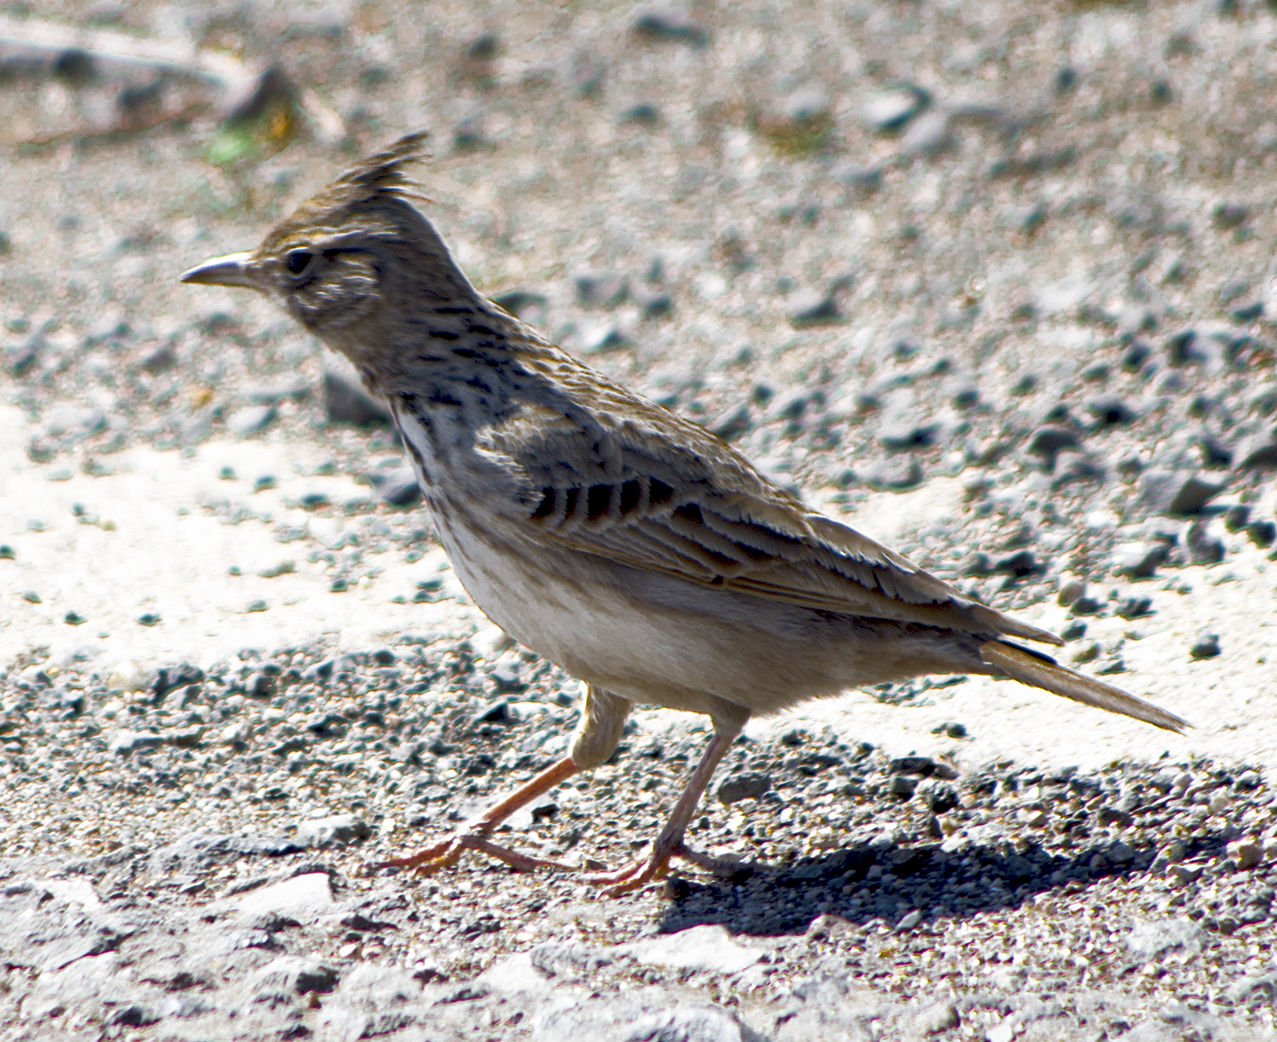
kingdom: Animalia
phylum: Chordata
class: Aves
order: Passeriformes
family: Alaudidae
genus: Galerida
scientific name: Galerida cristata
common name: Crested lark
